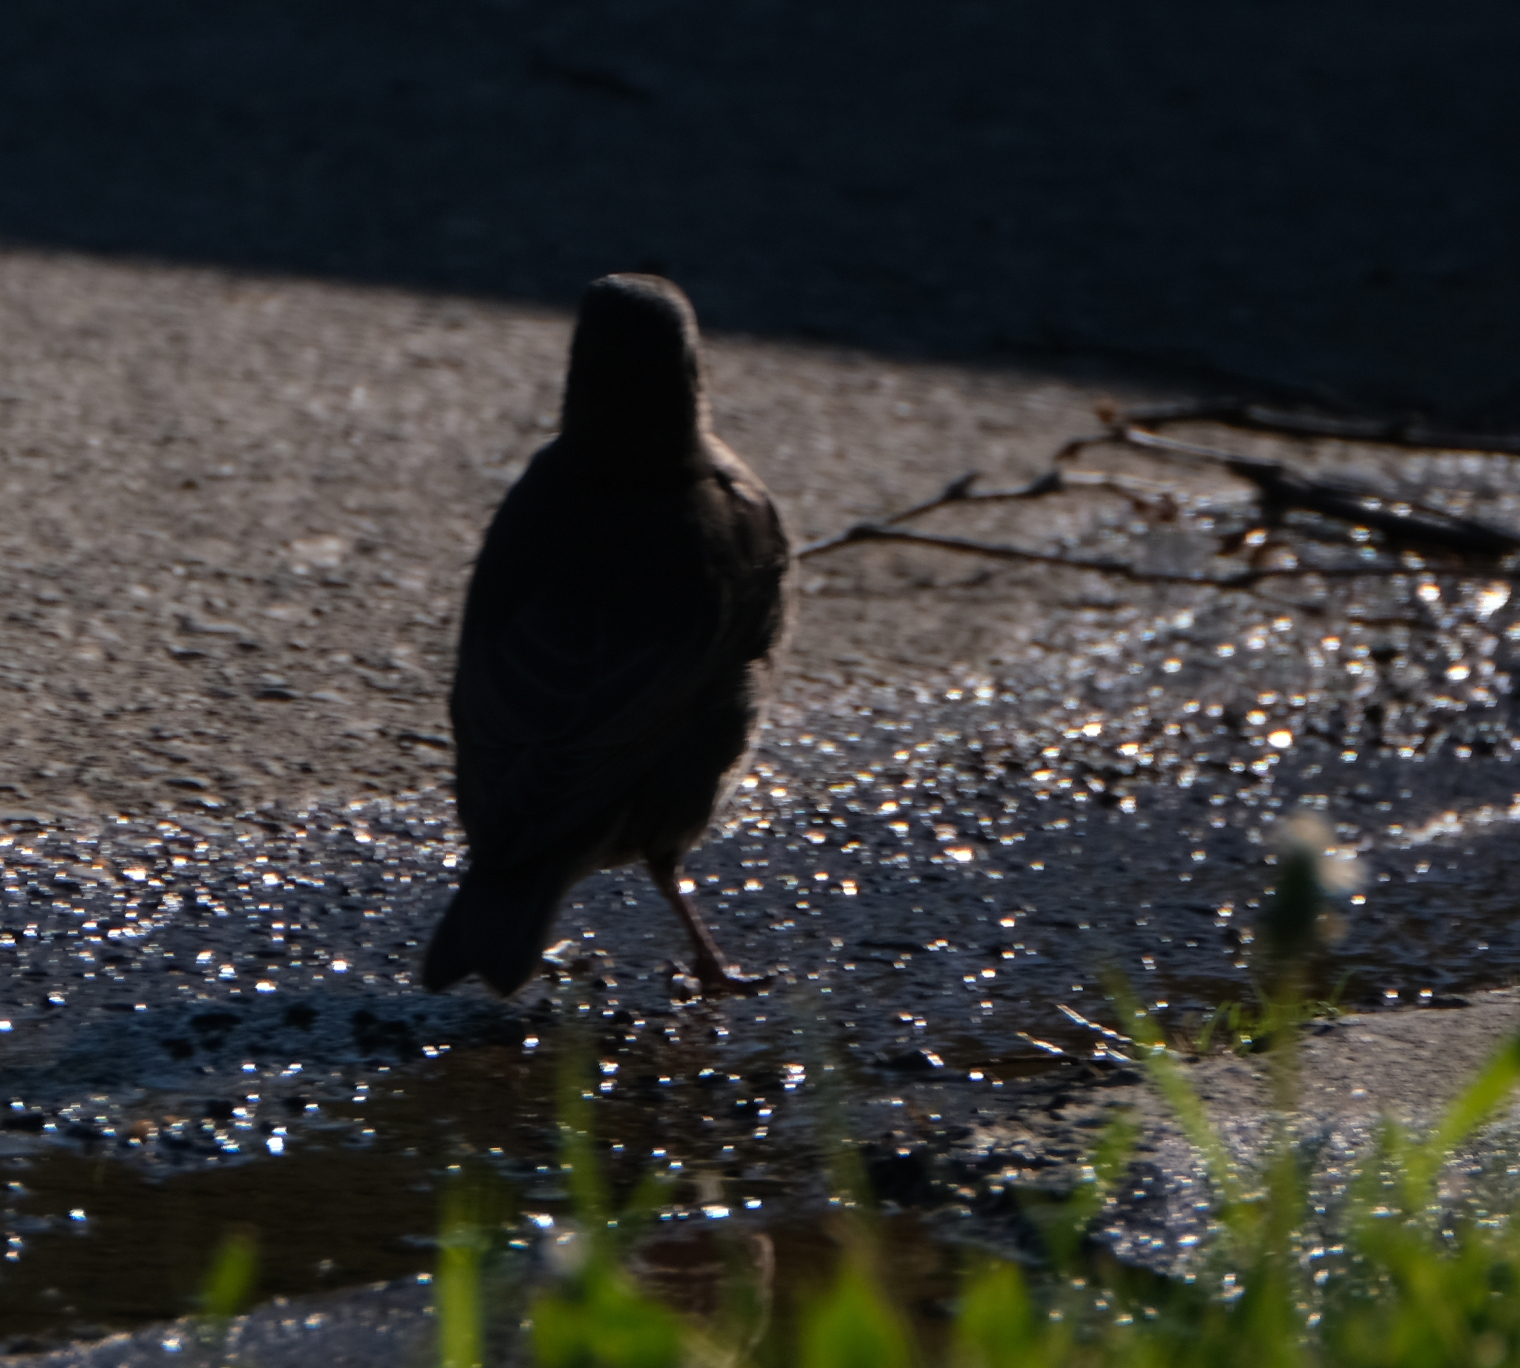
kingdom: Animalia
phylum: Chordata
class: Aves
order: Passeriformes
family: Sturnidae
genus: Sturnus
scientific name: Sturnus vulgaris
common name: Common starling
